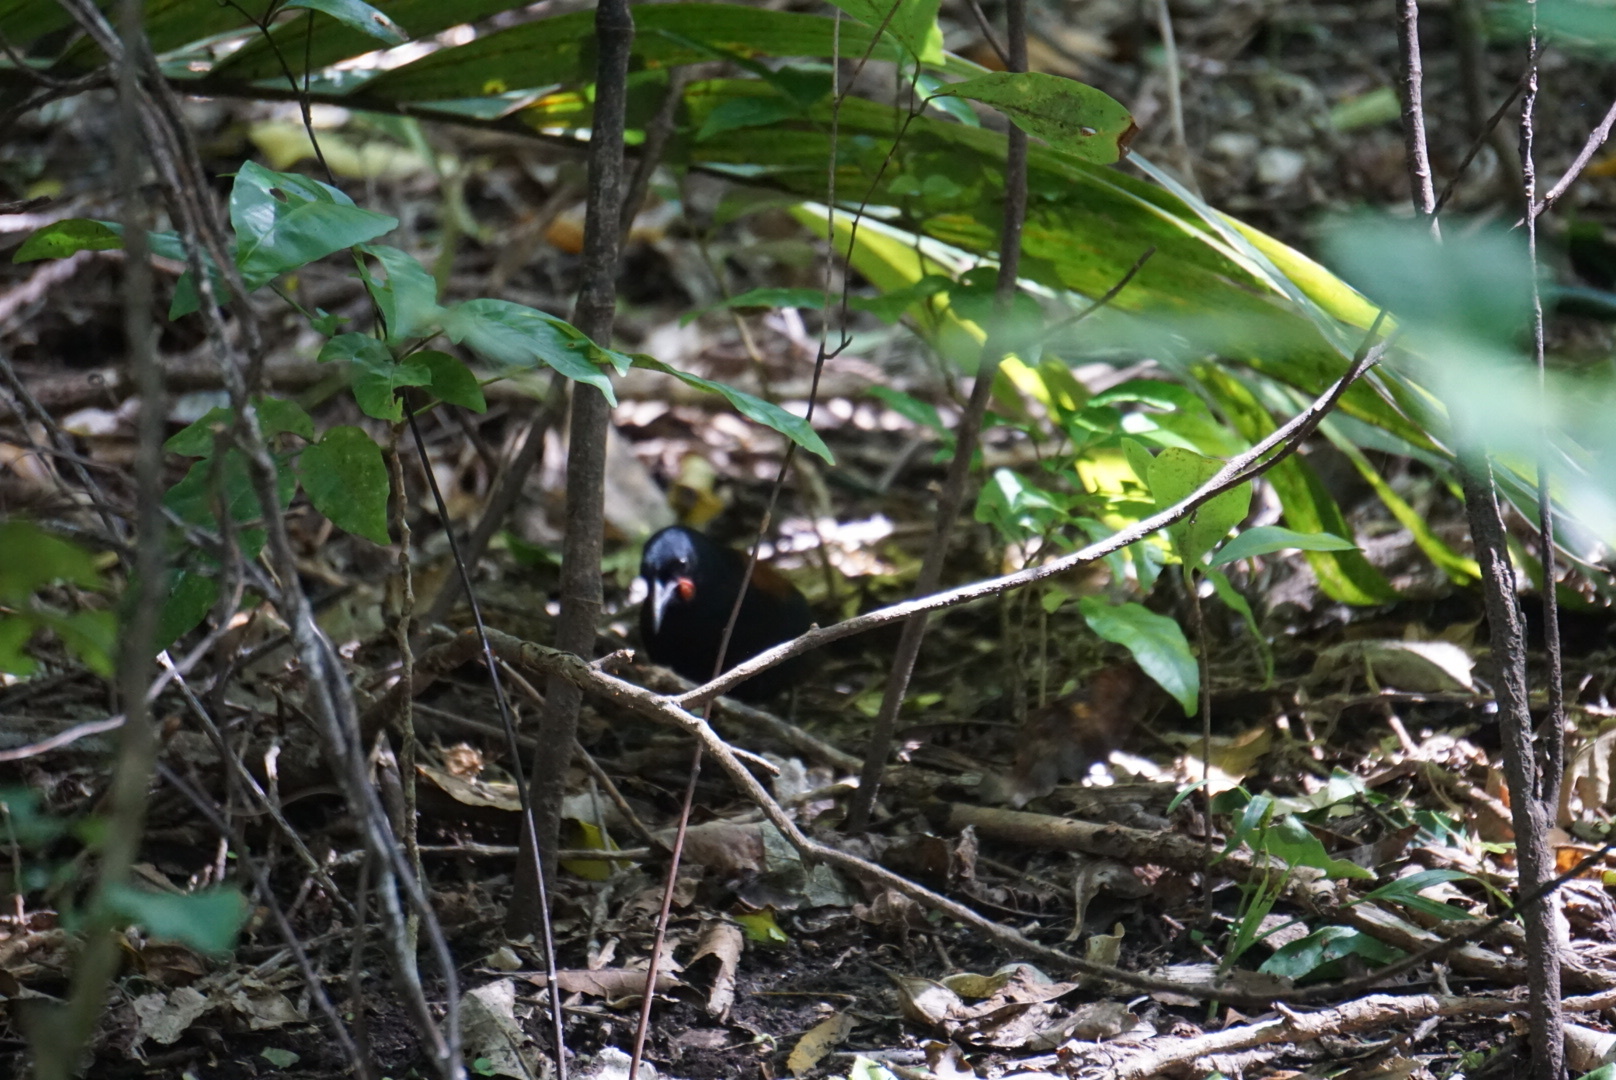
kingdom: Animalia
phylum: Chordata
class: Aves
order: Passeriformes
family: Callaeatidae
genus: Philesturnus
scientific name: Philesturnus carunculatus
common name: South island saddleback
